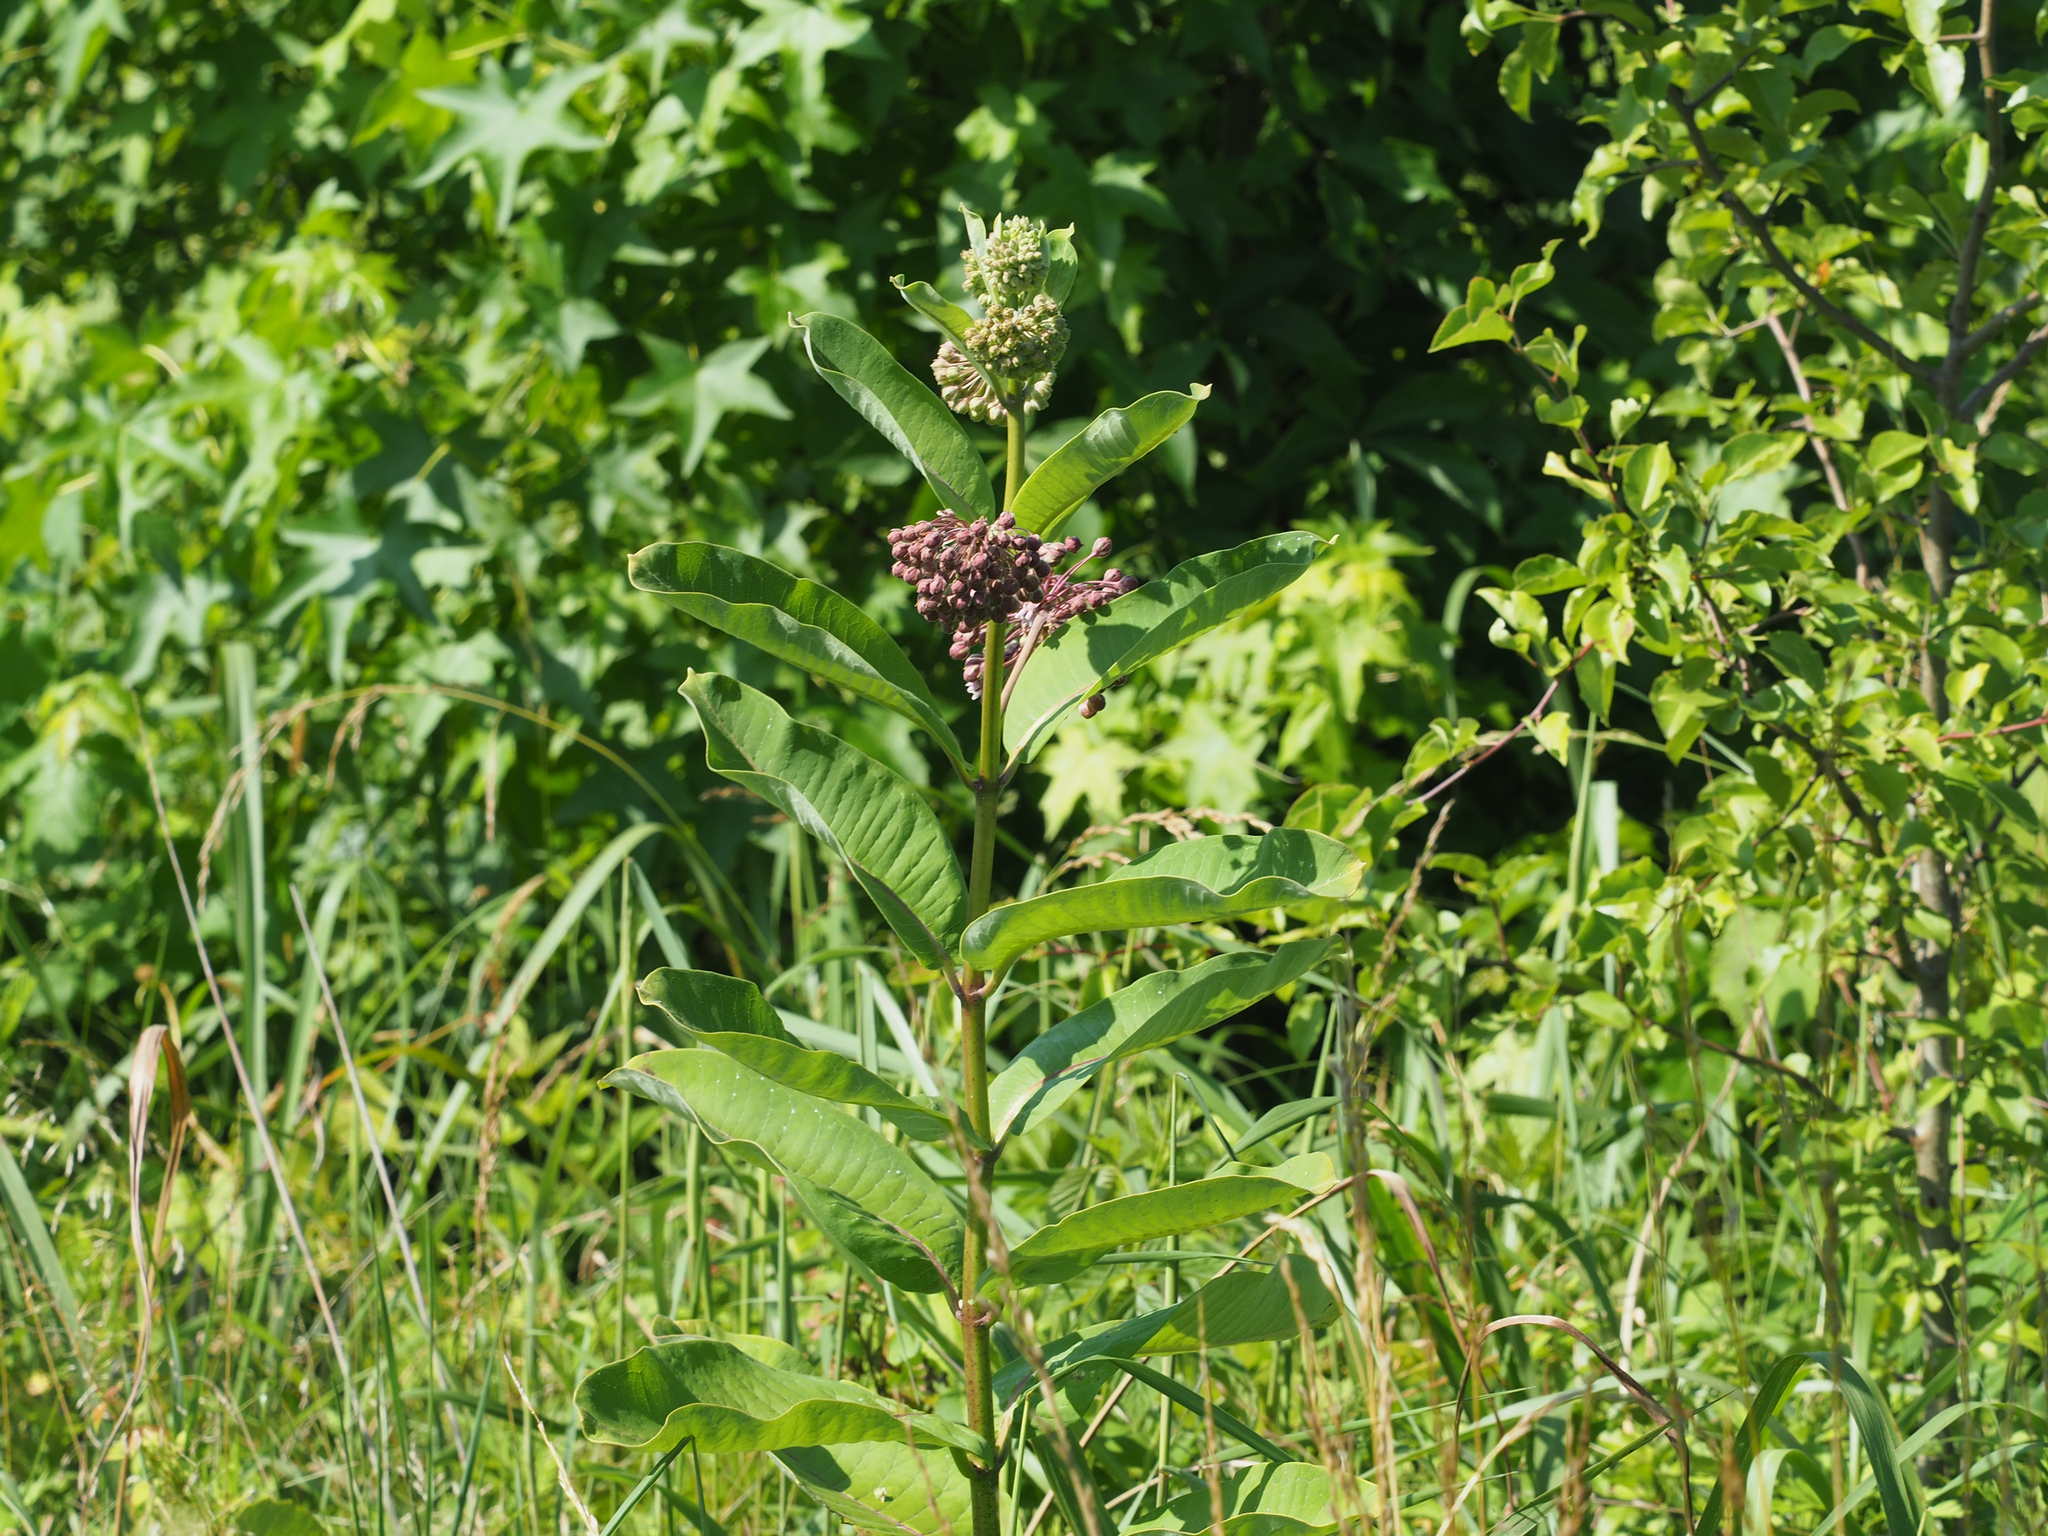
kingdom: Plantae
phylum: Tracheophyta
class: Magnoliopsida
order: Gentianales
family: Apocynaceae
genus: Asclepias
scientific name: Asclepias syriaca
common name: Common milkweed
